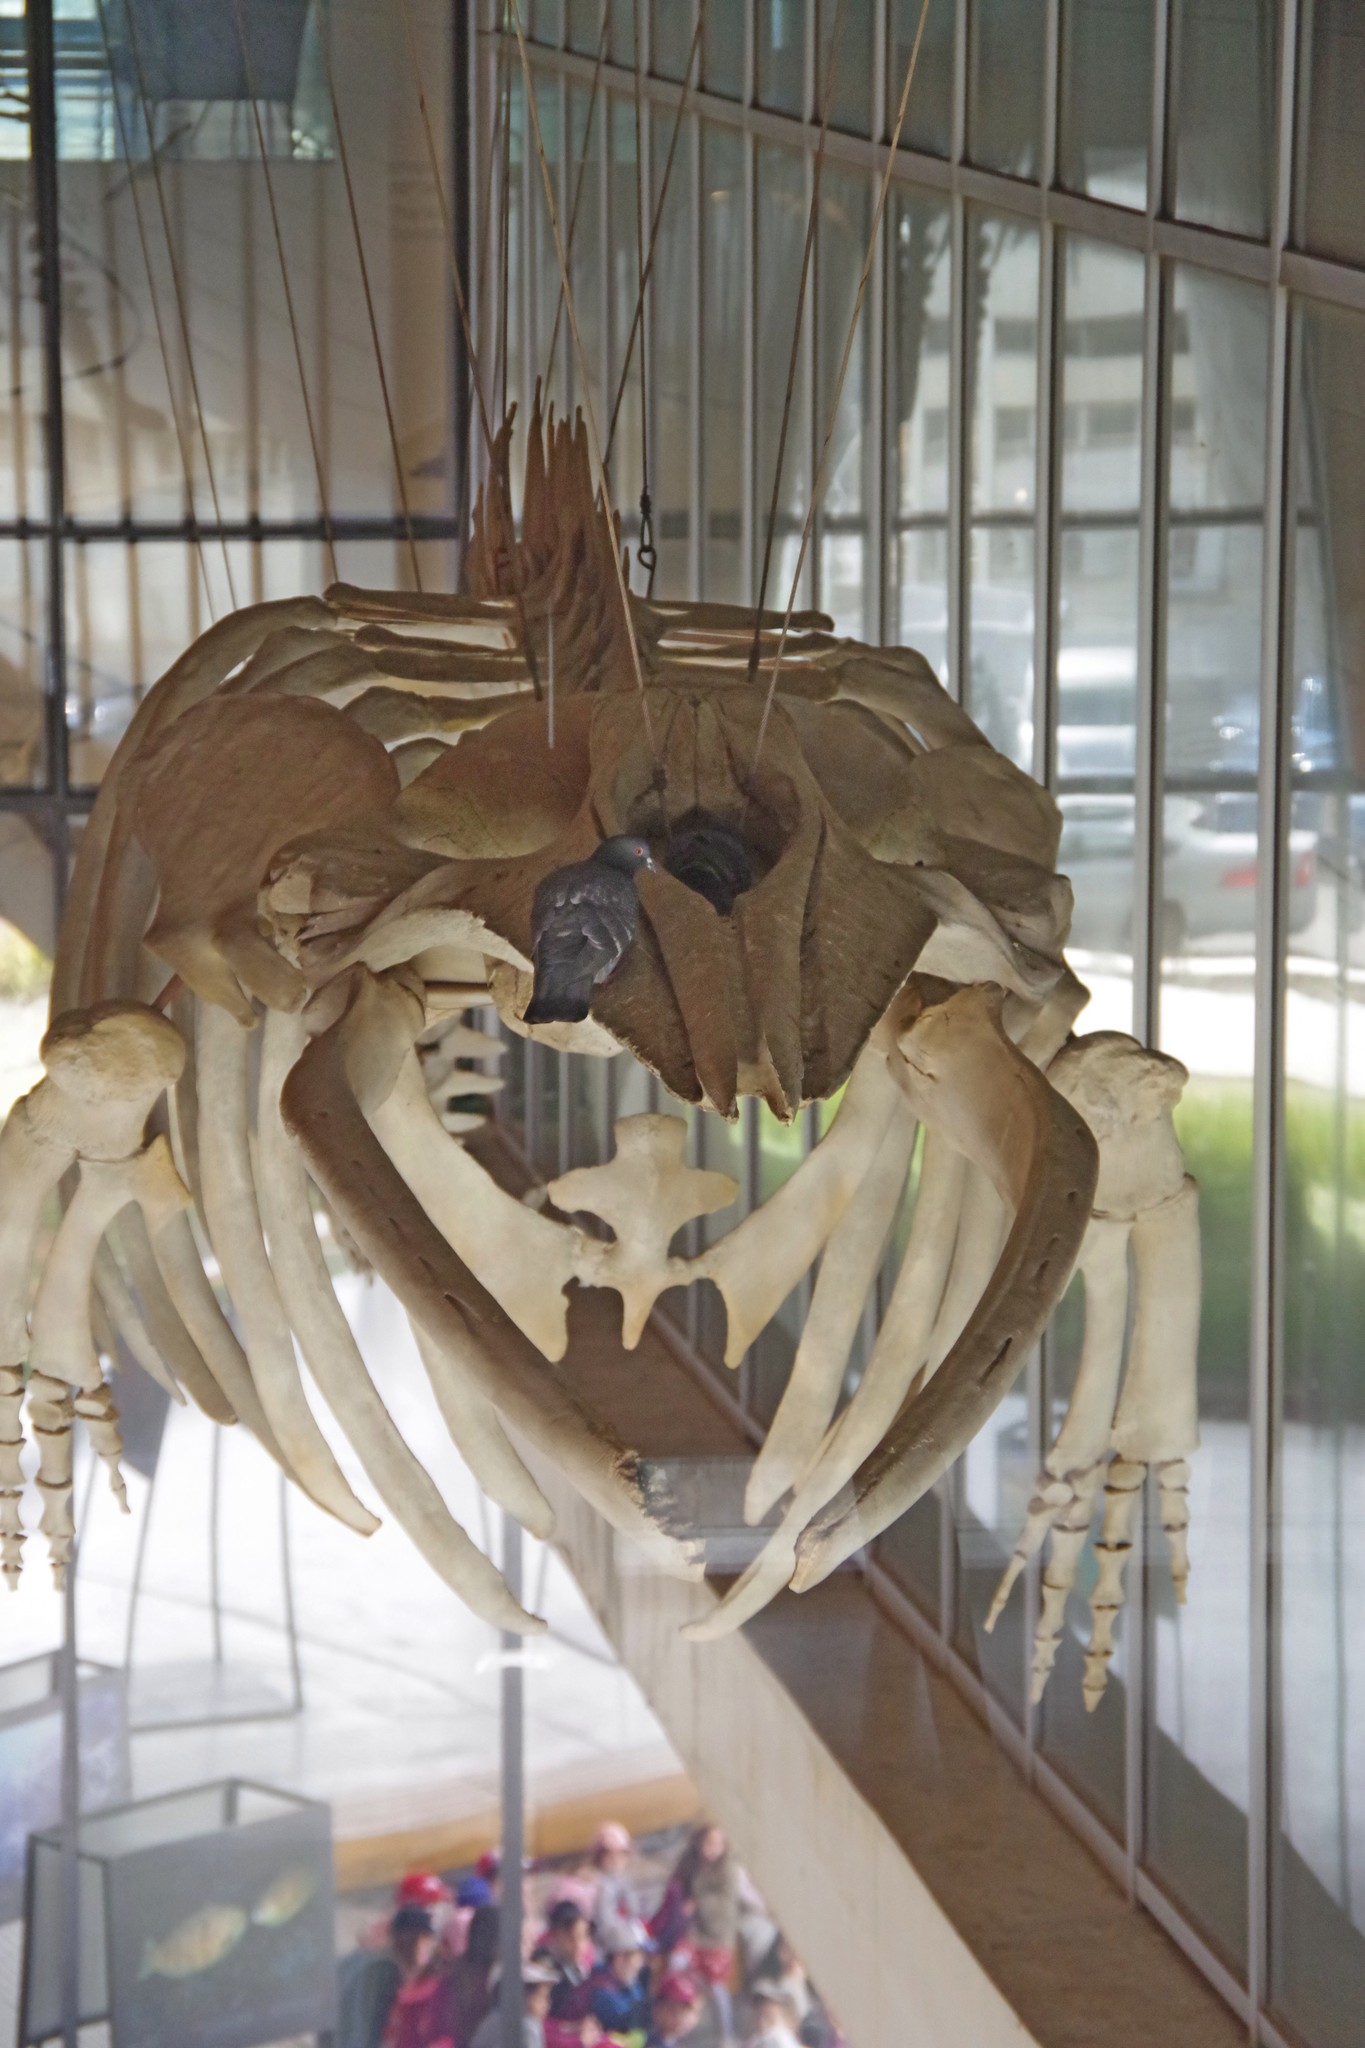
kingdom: Animalia
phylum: Chordata
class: Aves
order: Columbiformes
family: Columbidae
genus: Columba
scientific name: Columba livia
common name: Rock pigeon
